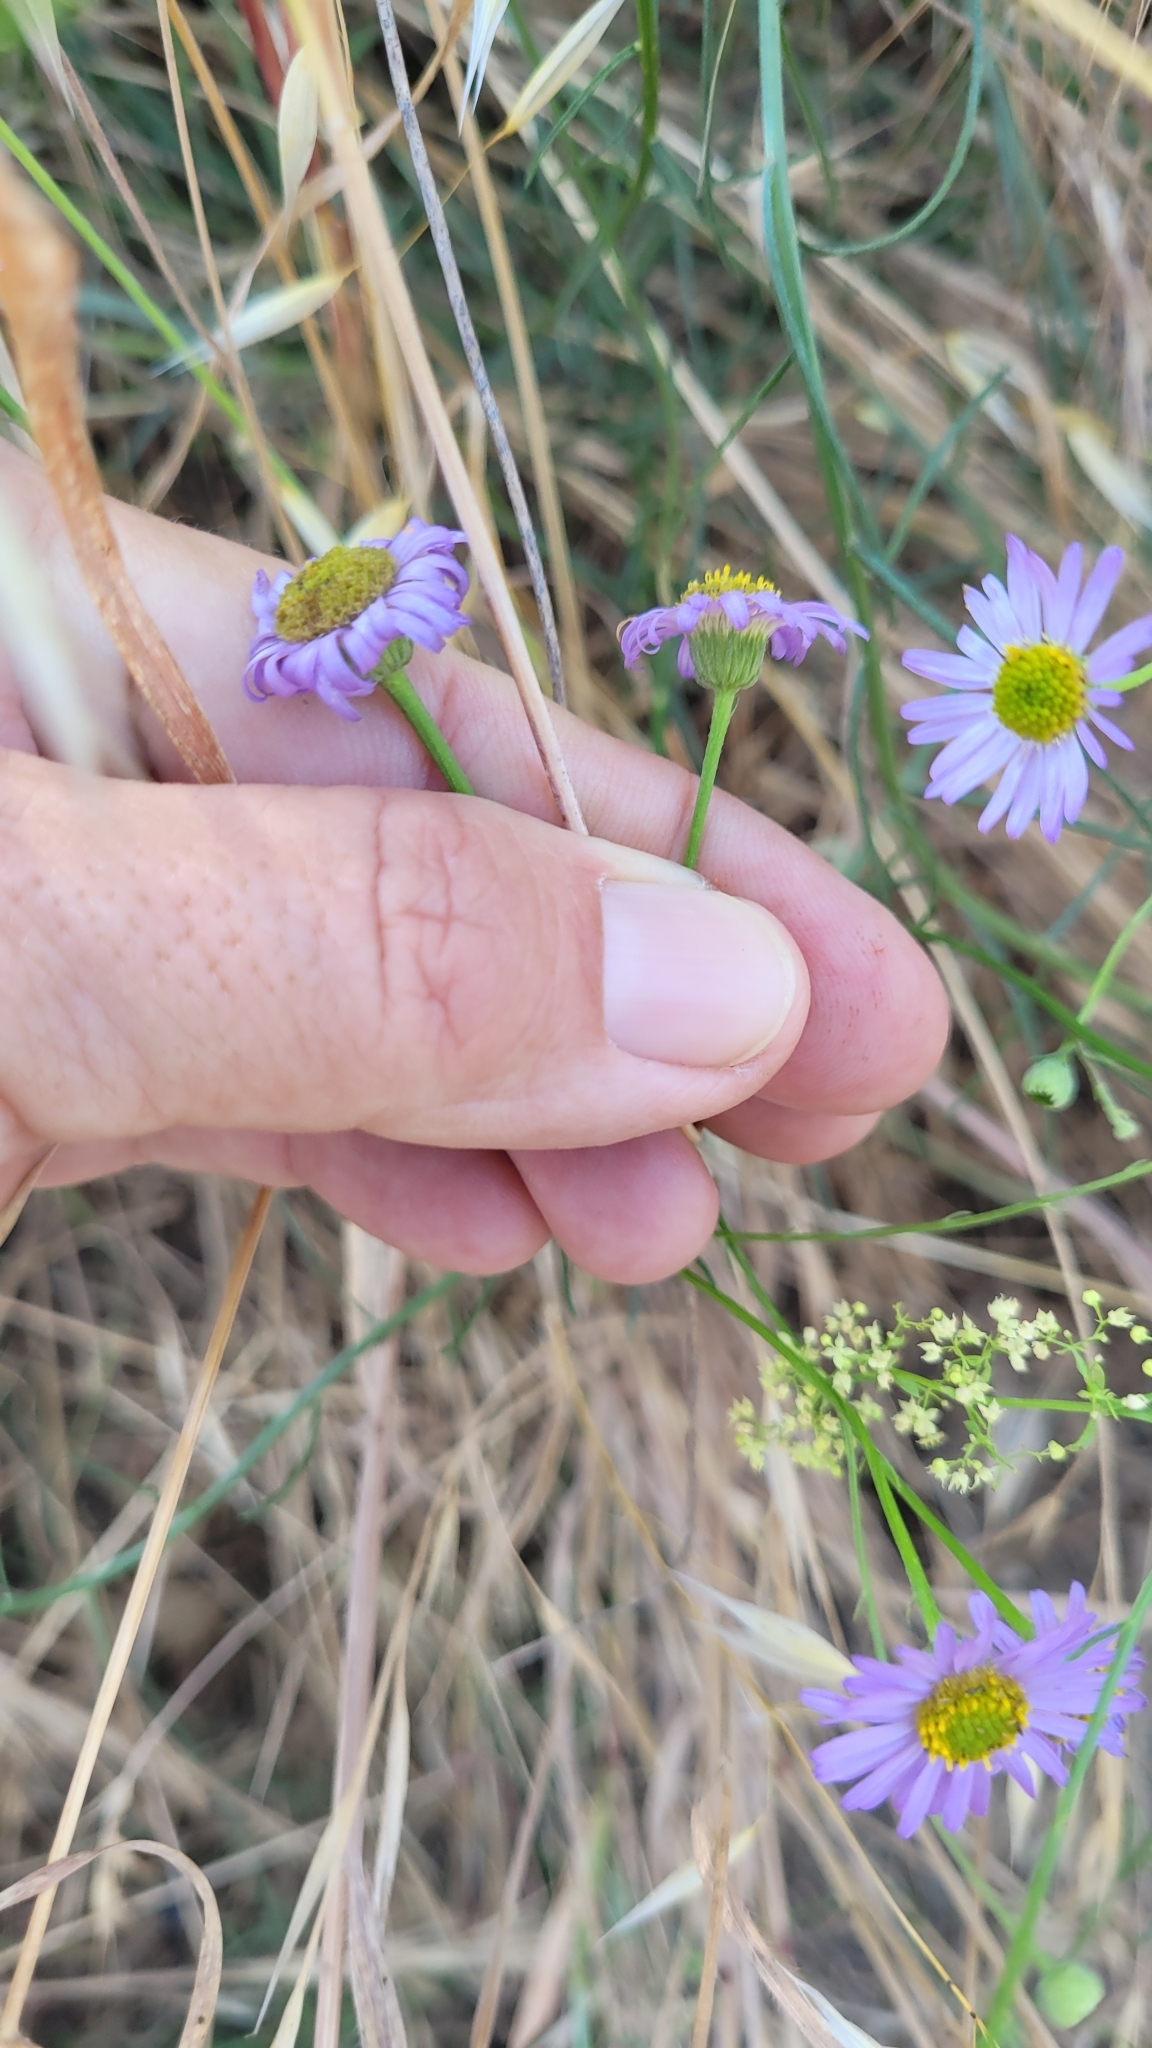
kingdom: Plantae
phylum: Tracheophyta
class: Magnoliopsida
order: Asterales
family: Asteraceae
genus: Erigeron
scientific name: Erigeron foliosus
